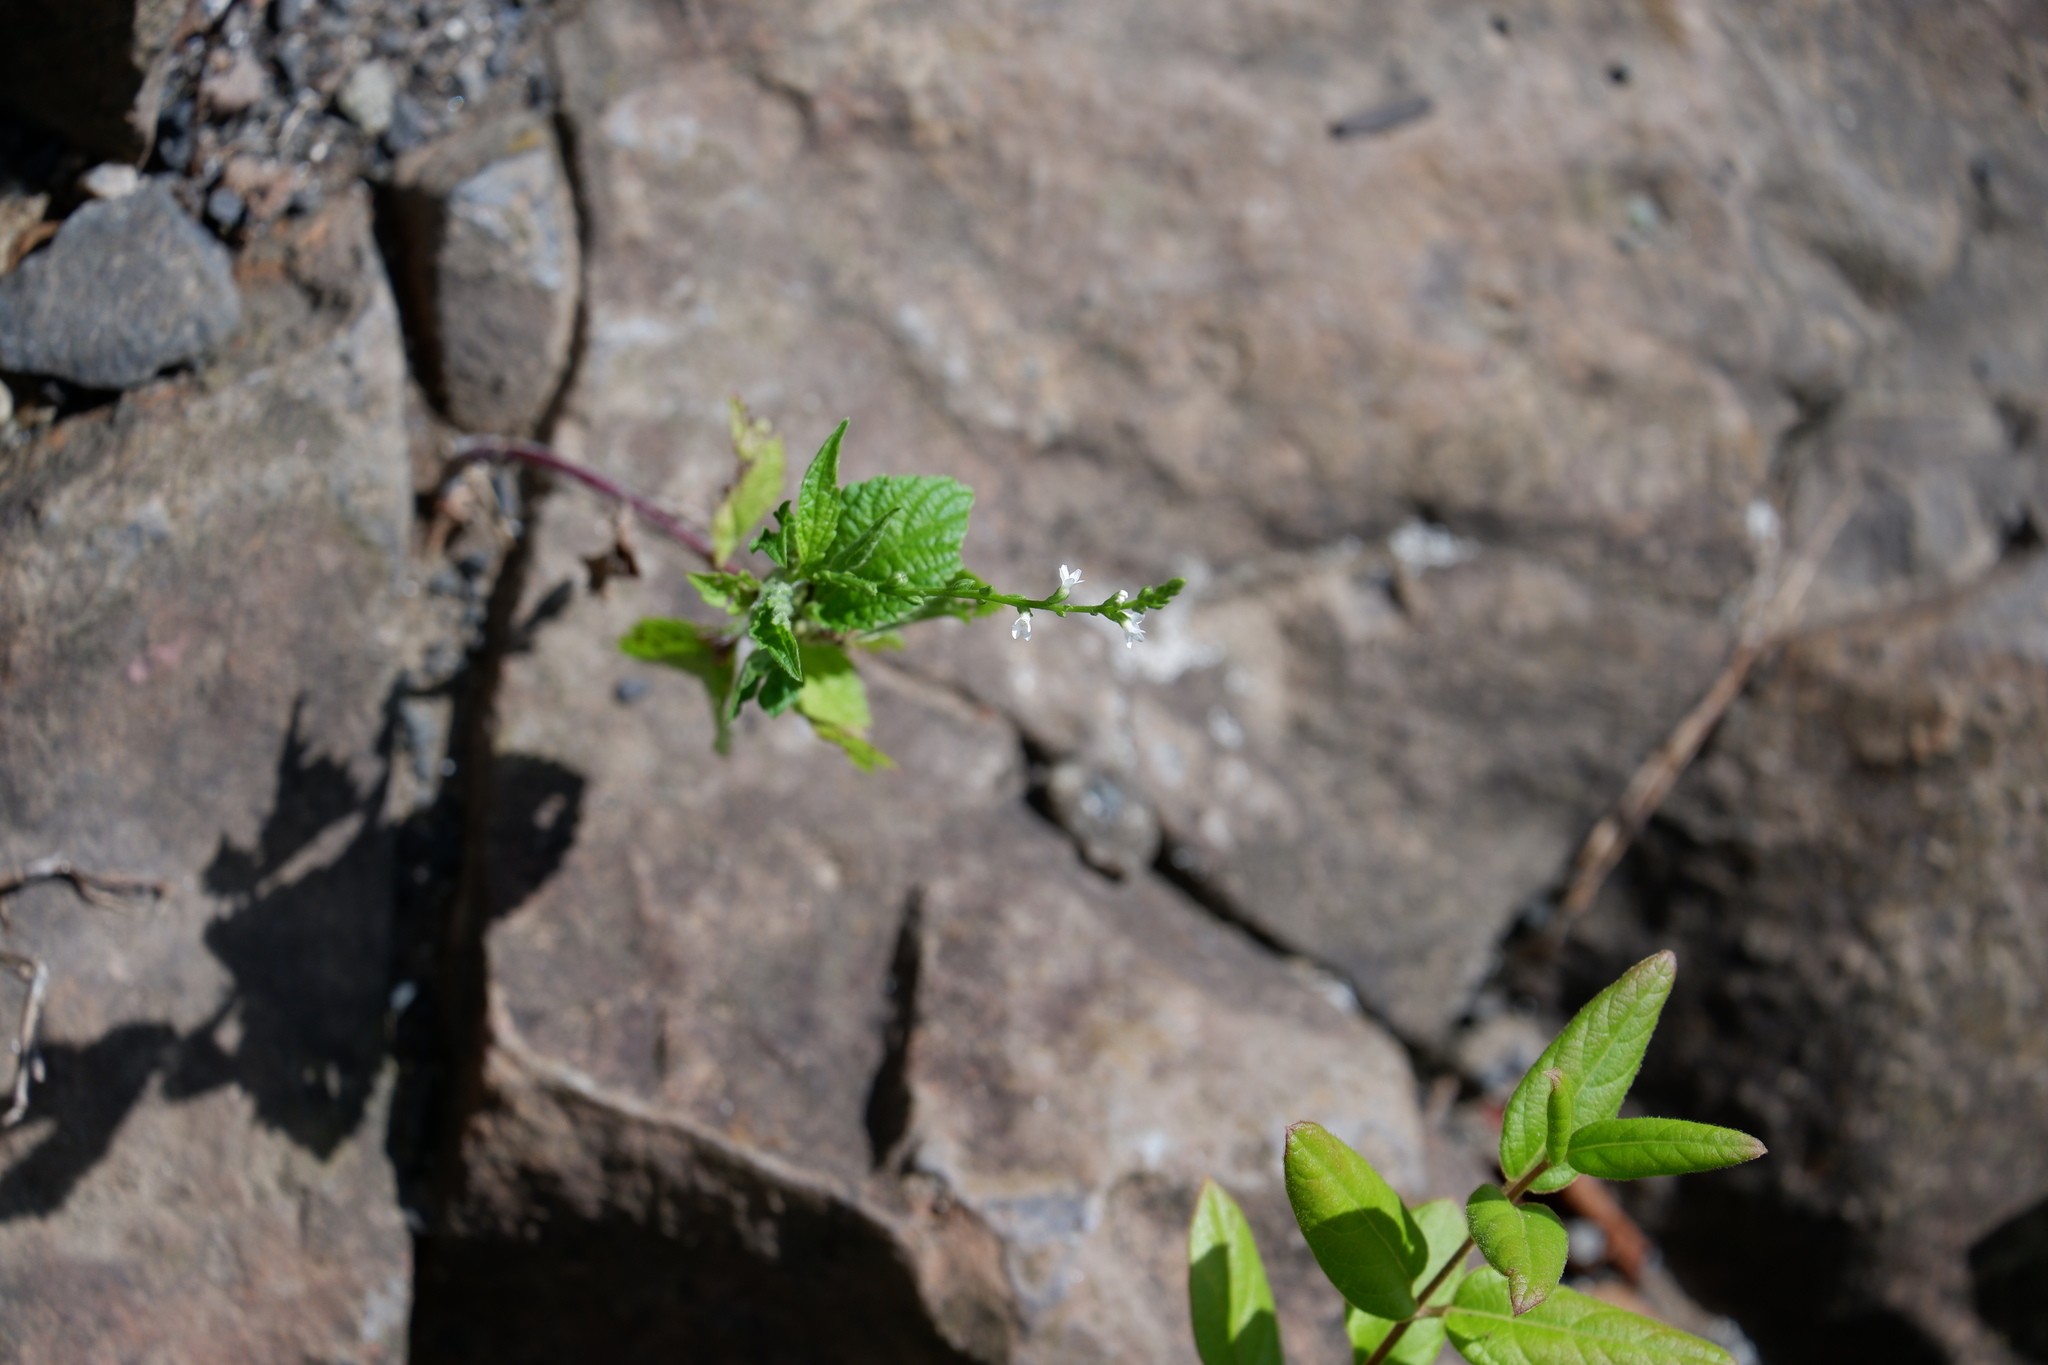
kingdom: Plantae
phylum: Tracheophyta
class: Magnoliopsida
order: Lamiales
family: Verbenaceae
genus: Verbena
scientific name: Verbena urticifolia
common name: Nettle-leaved vervain
